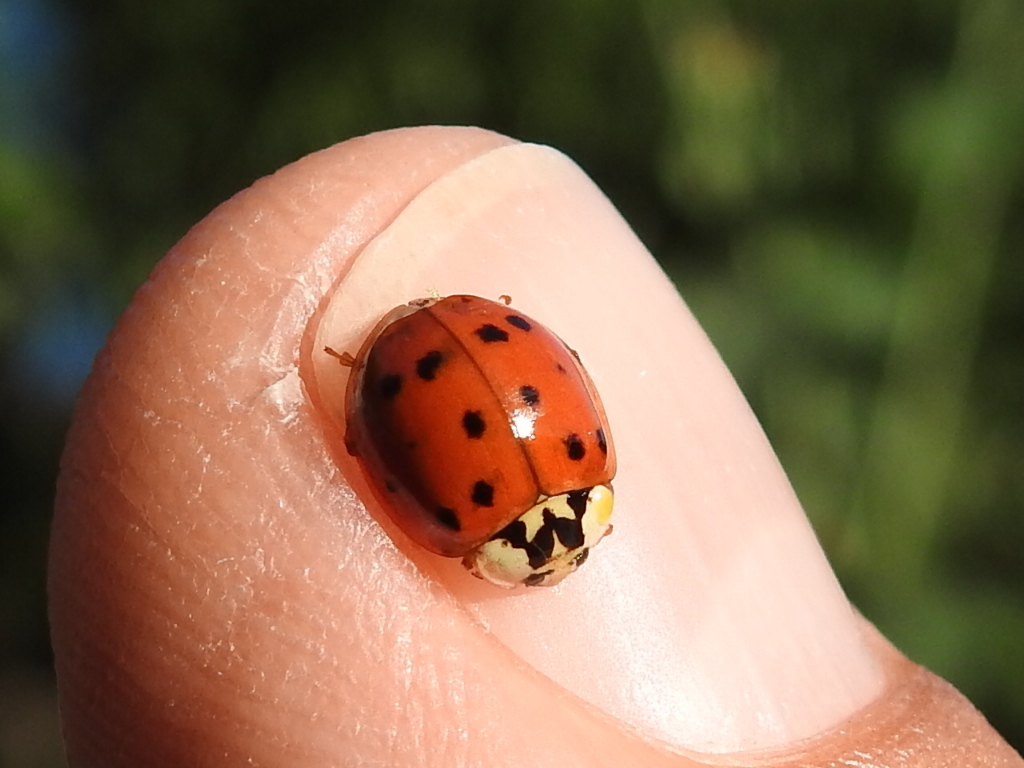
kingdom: Animalia
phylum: Arthropoda
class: Insecta
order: Coleoptera
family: Coccinellidae
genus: Harmonia
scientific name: Harmonia axyridis
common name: Harlequin ladybird
